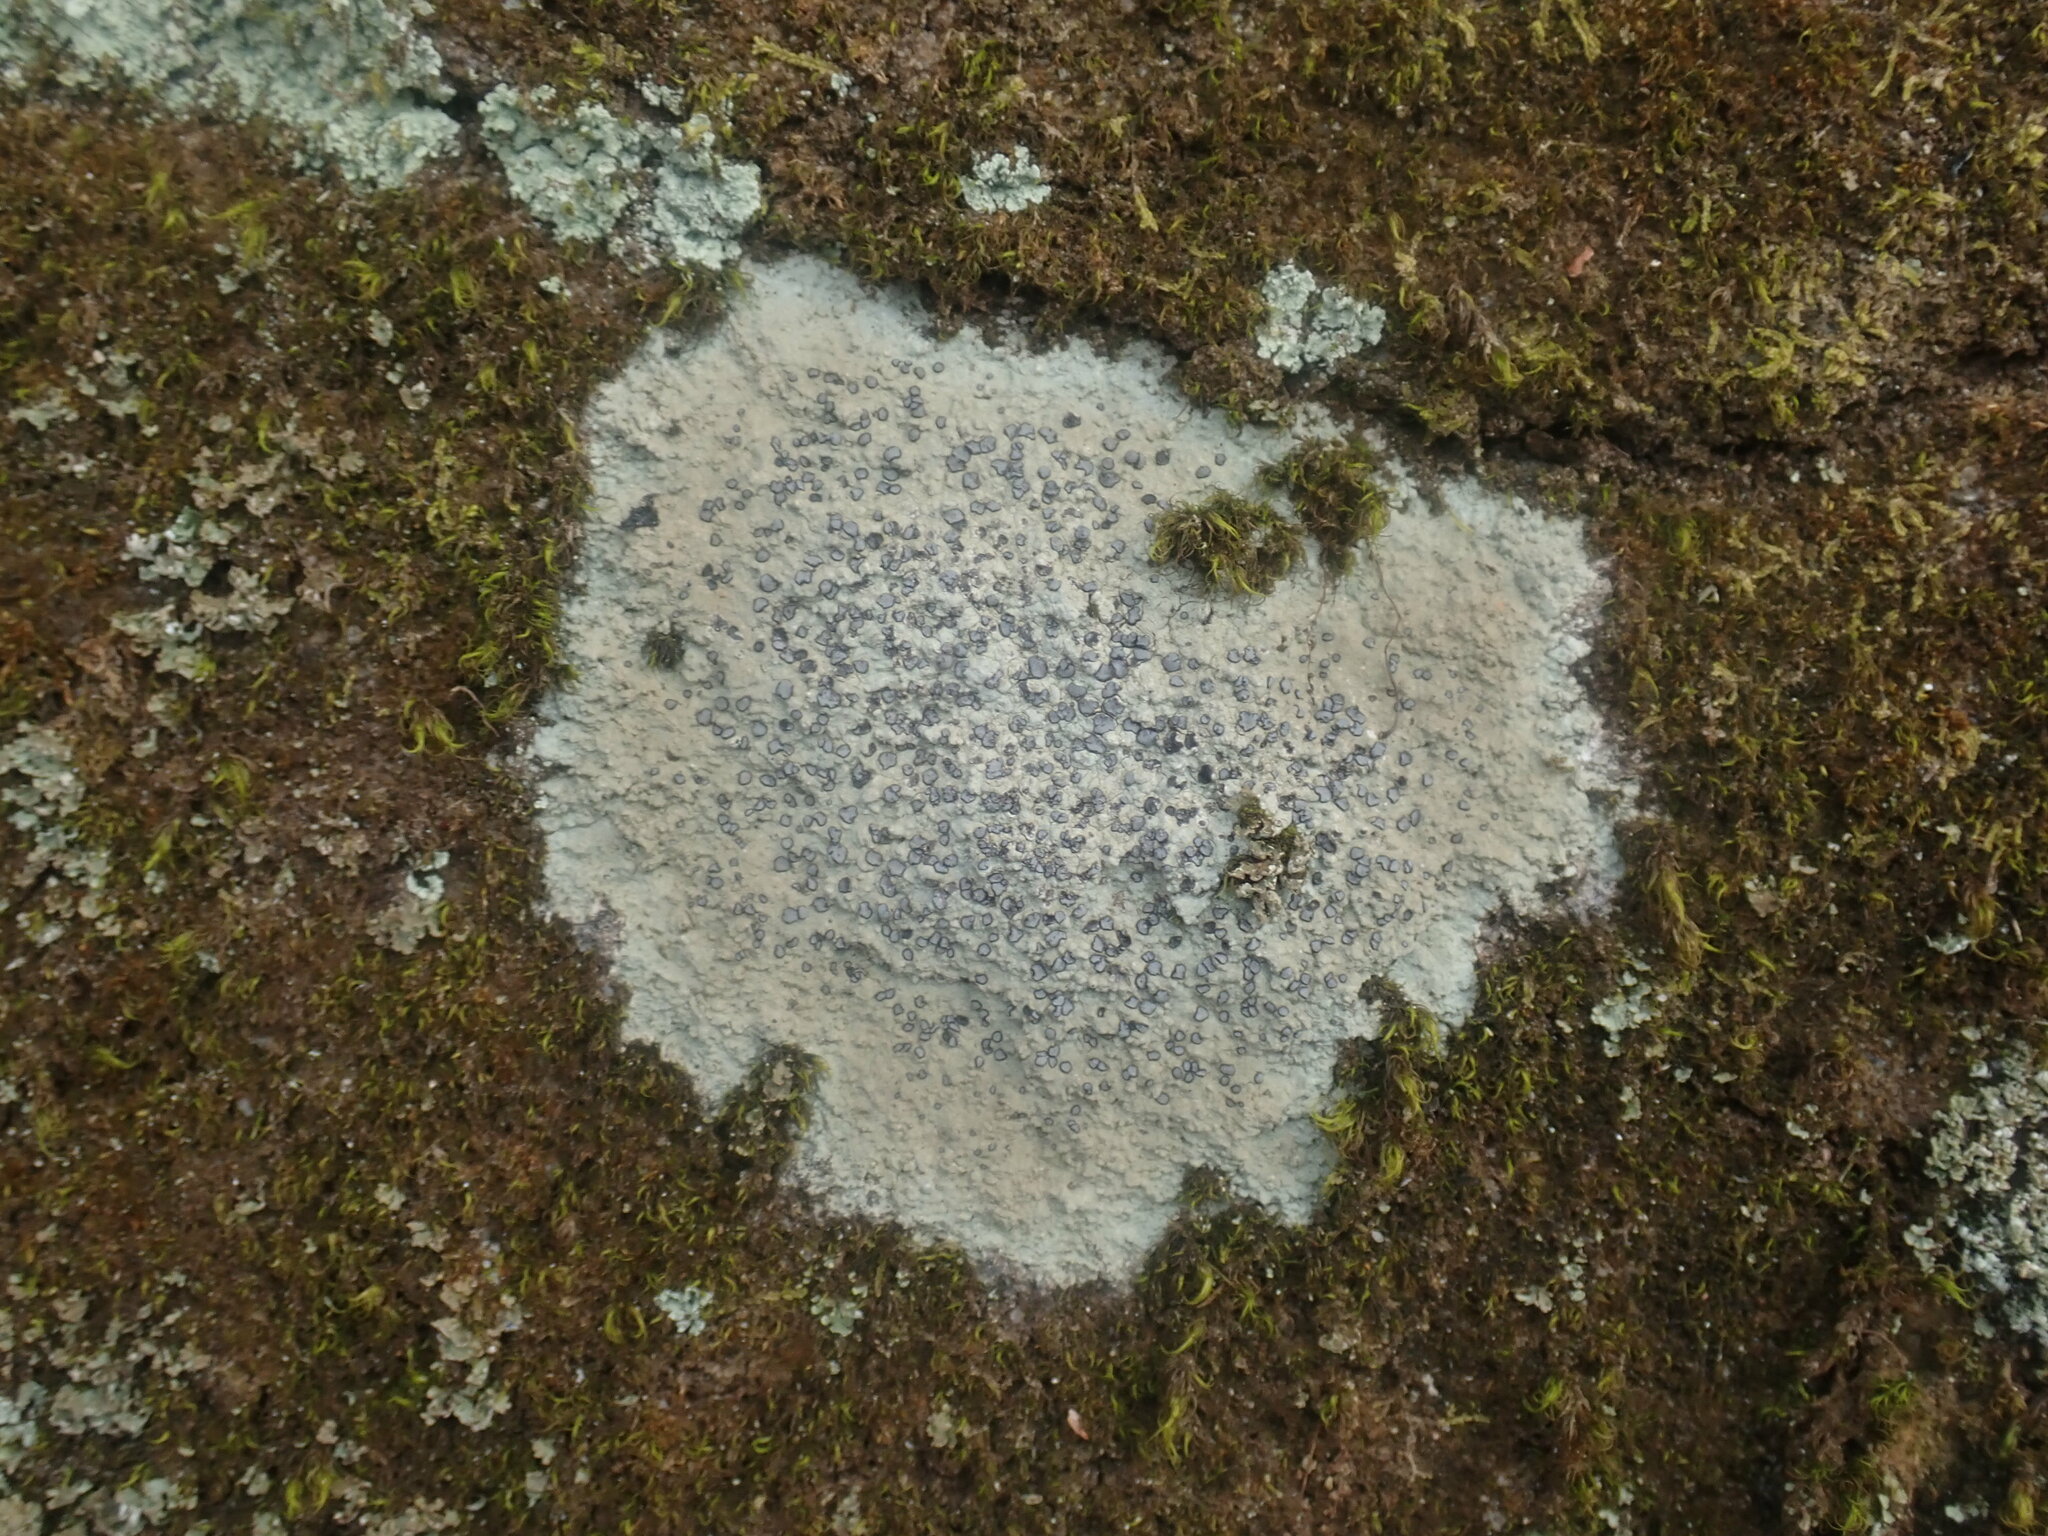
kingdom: Fungi
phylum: Ascomycota
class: Lecanoromycetes
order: Lecideales
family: Lecideaceae
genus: Porpidia
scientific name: Porpidia albocaerulescens
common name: Smokey-eyed boulder lichen
